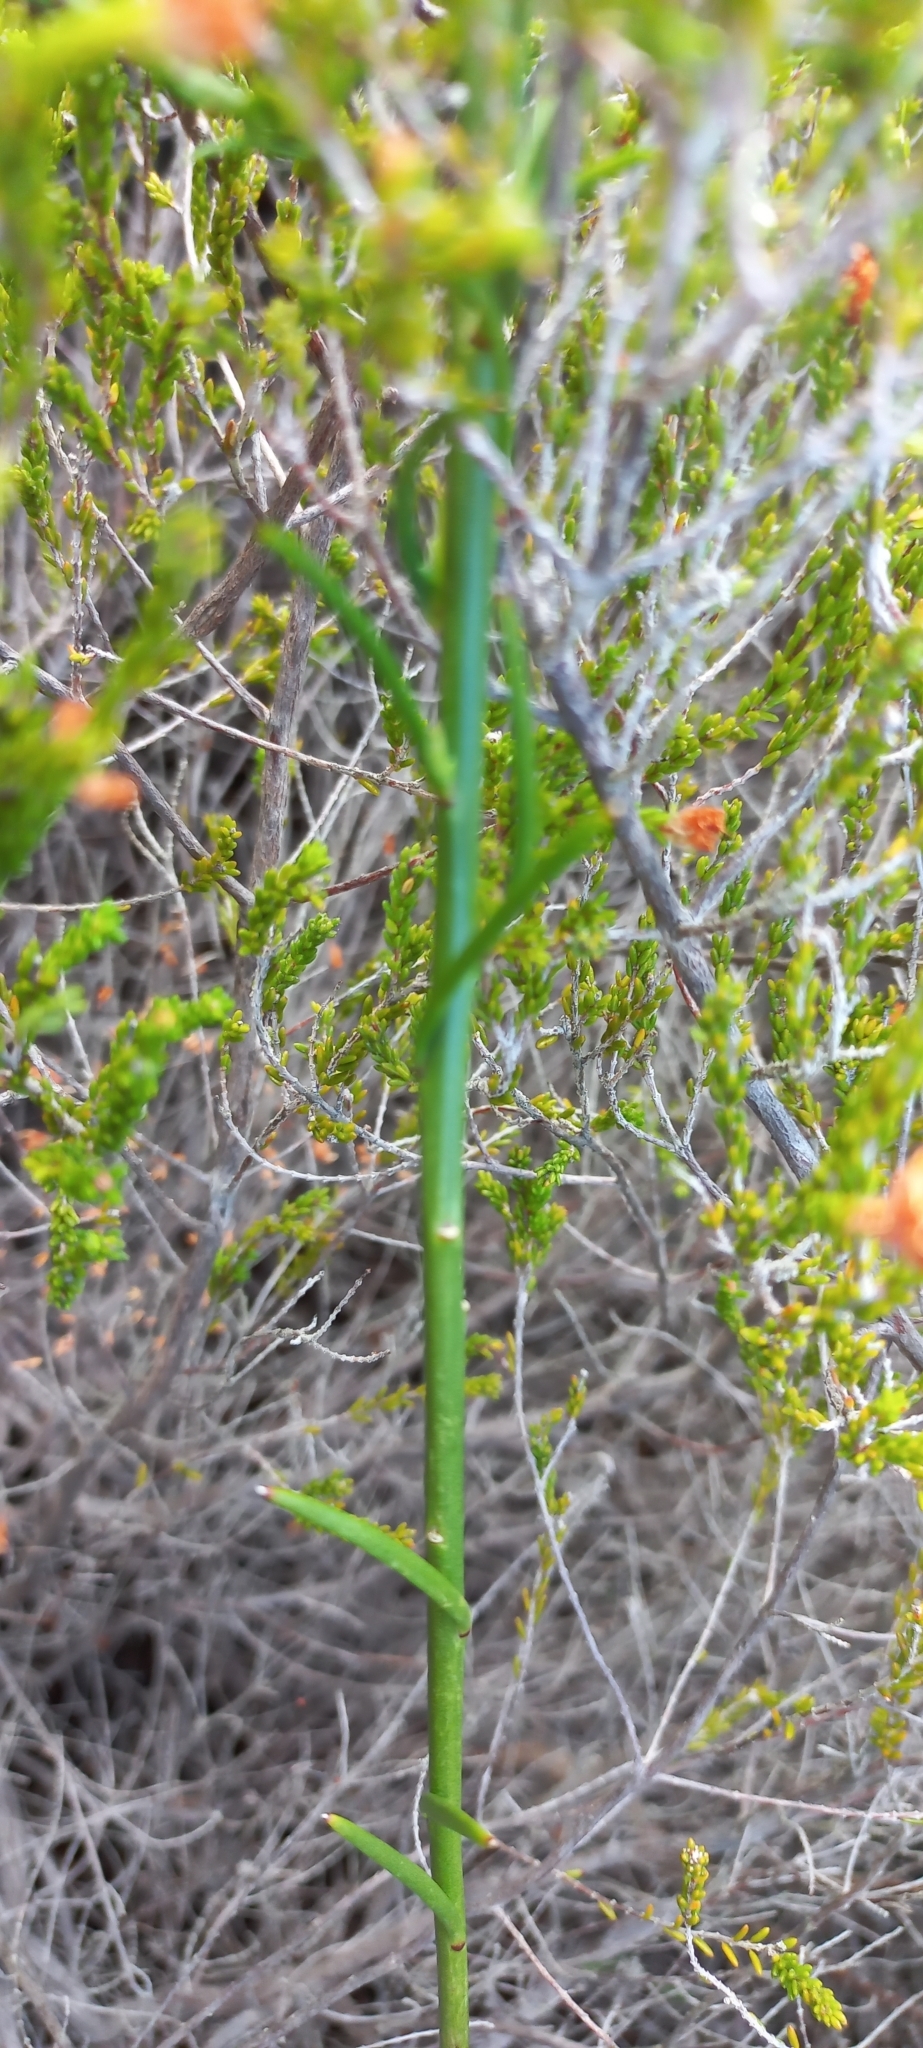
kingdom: Plantae
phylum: Tracheophyta
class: Magnoliopsida
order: Brassicales
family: Brassicaceae
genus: Heliophila
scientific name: Heliophila linearis
